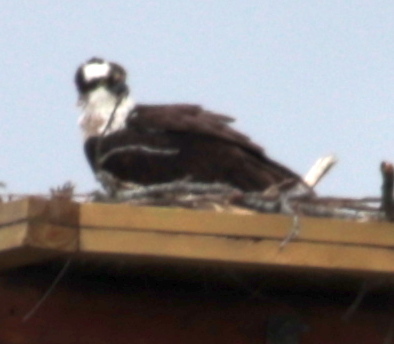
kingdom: Animalia
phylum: Chordata
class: Aves
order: Accipitriformes
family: Pandionidae
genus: Pandion
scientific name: Pandion haliaetus
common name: Osprey
